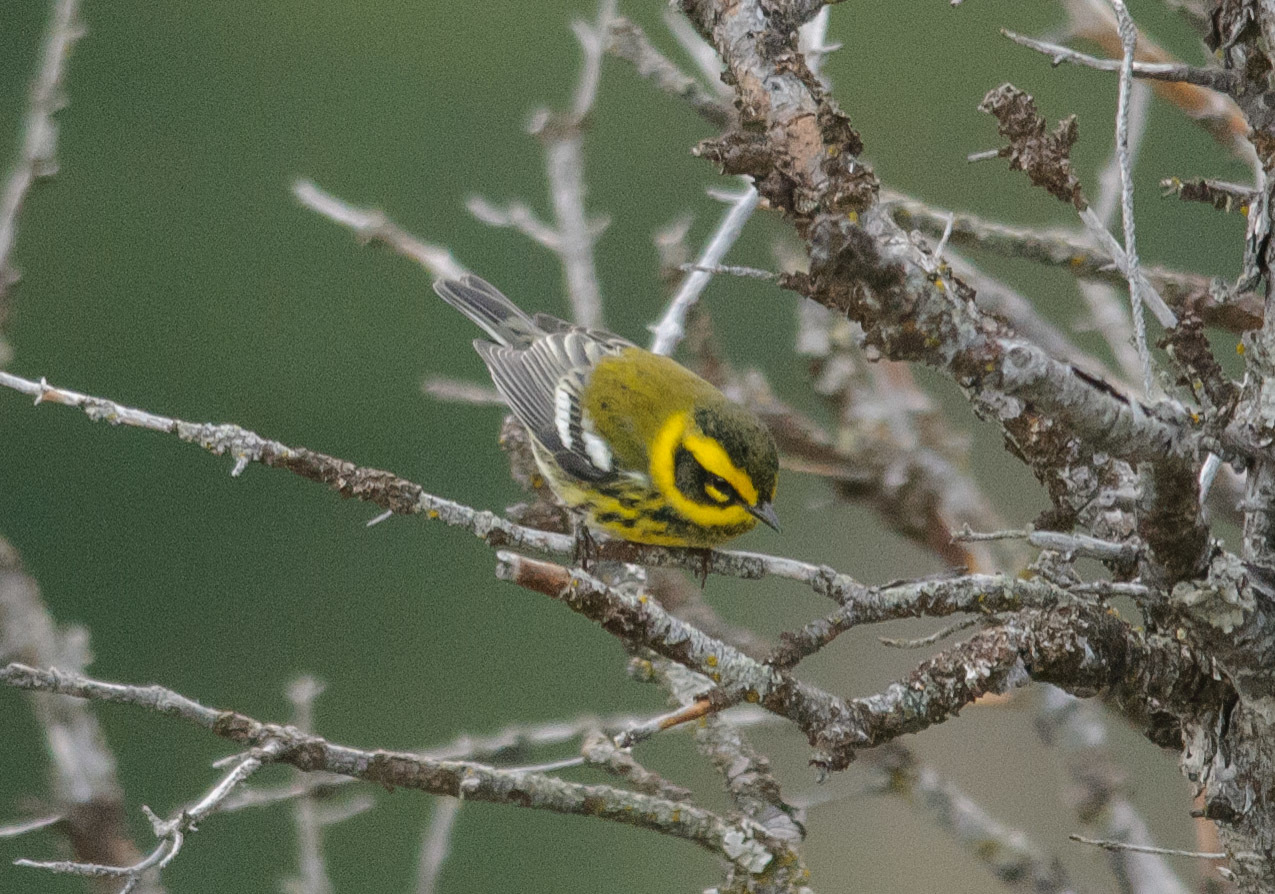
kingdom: Animalia
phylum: Chordata
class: Aves
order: Passeriformes
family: Parulidae
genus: Setophaga
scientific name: Setophaga townsendi
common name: Townsend's warbler
